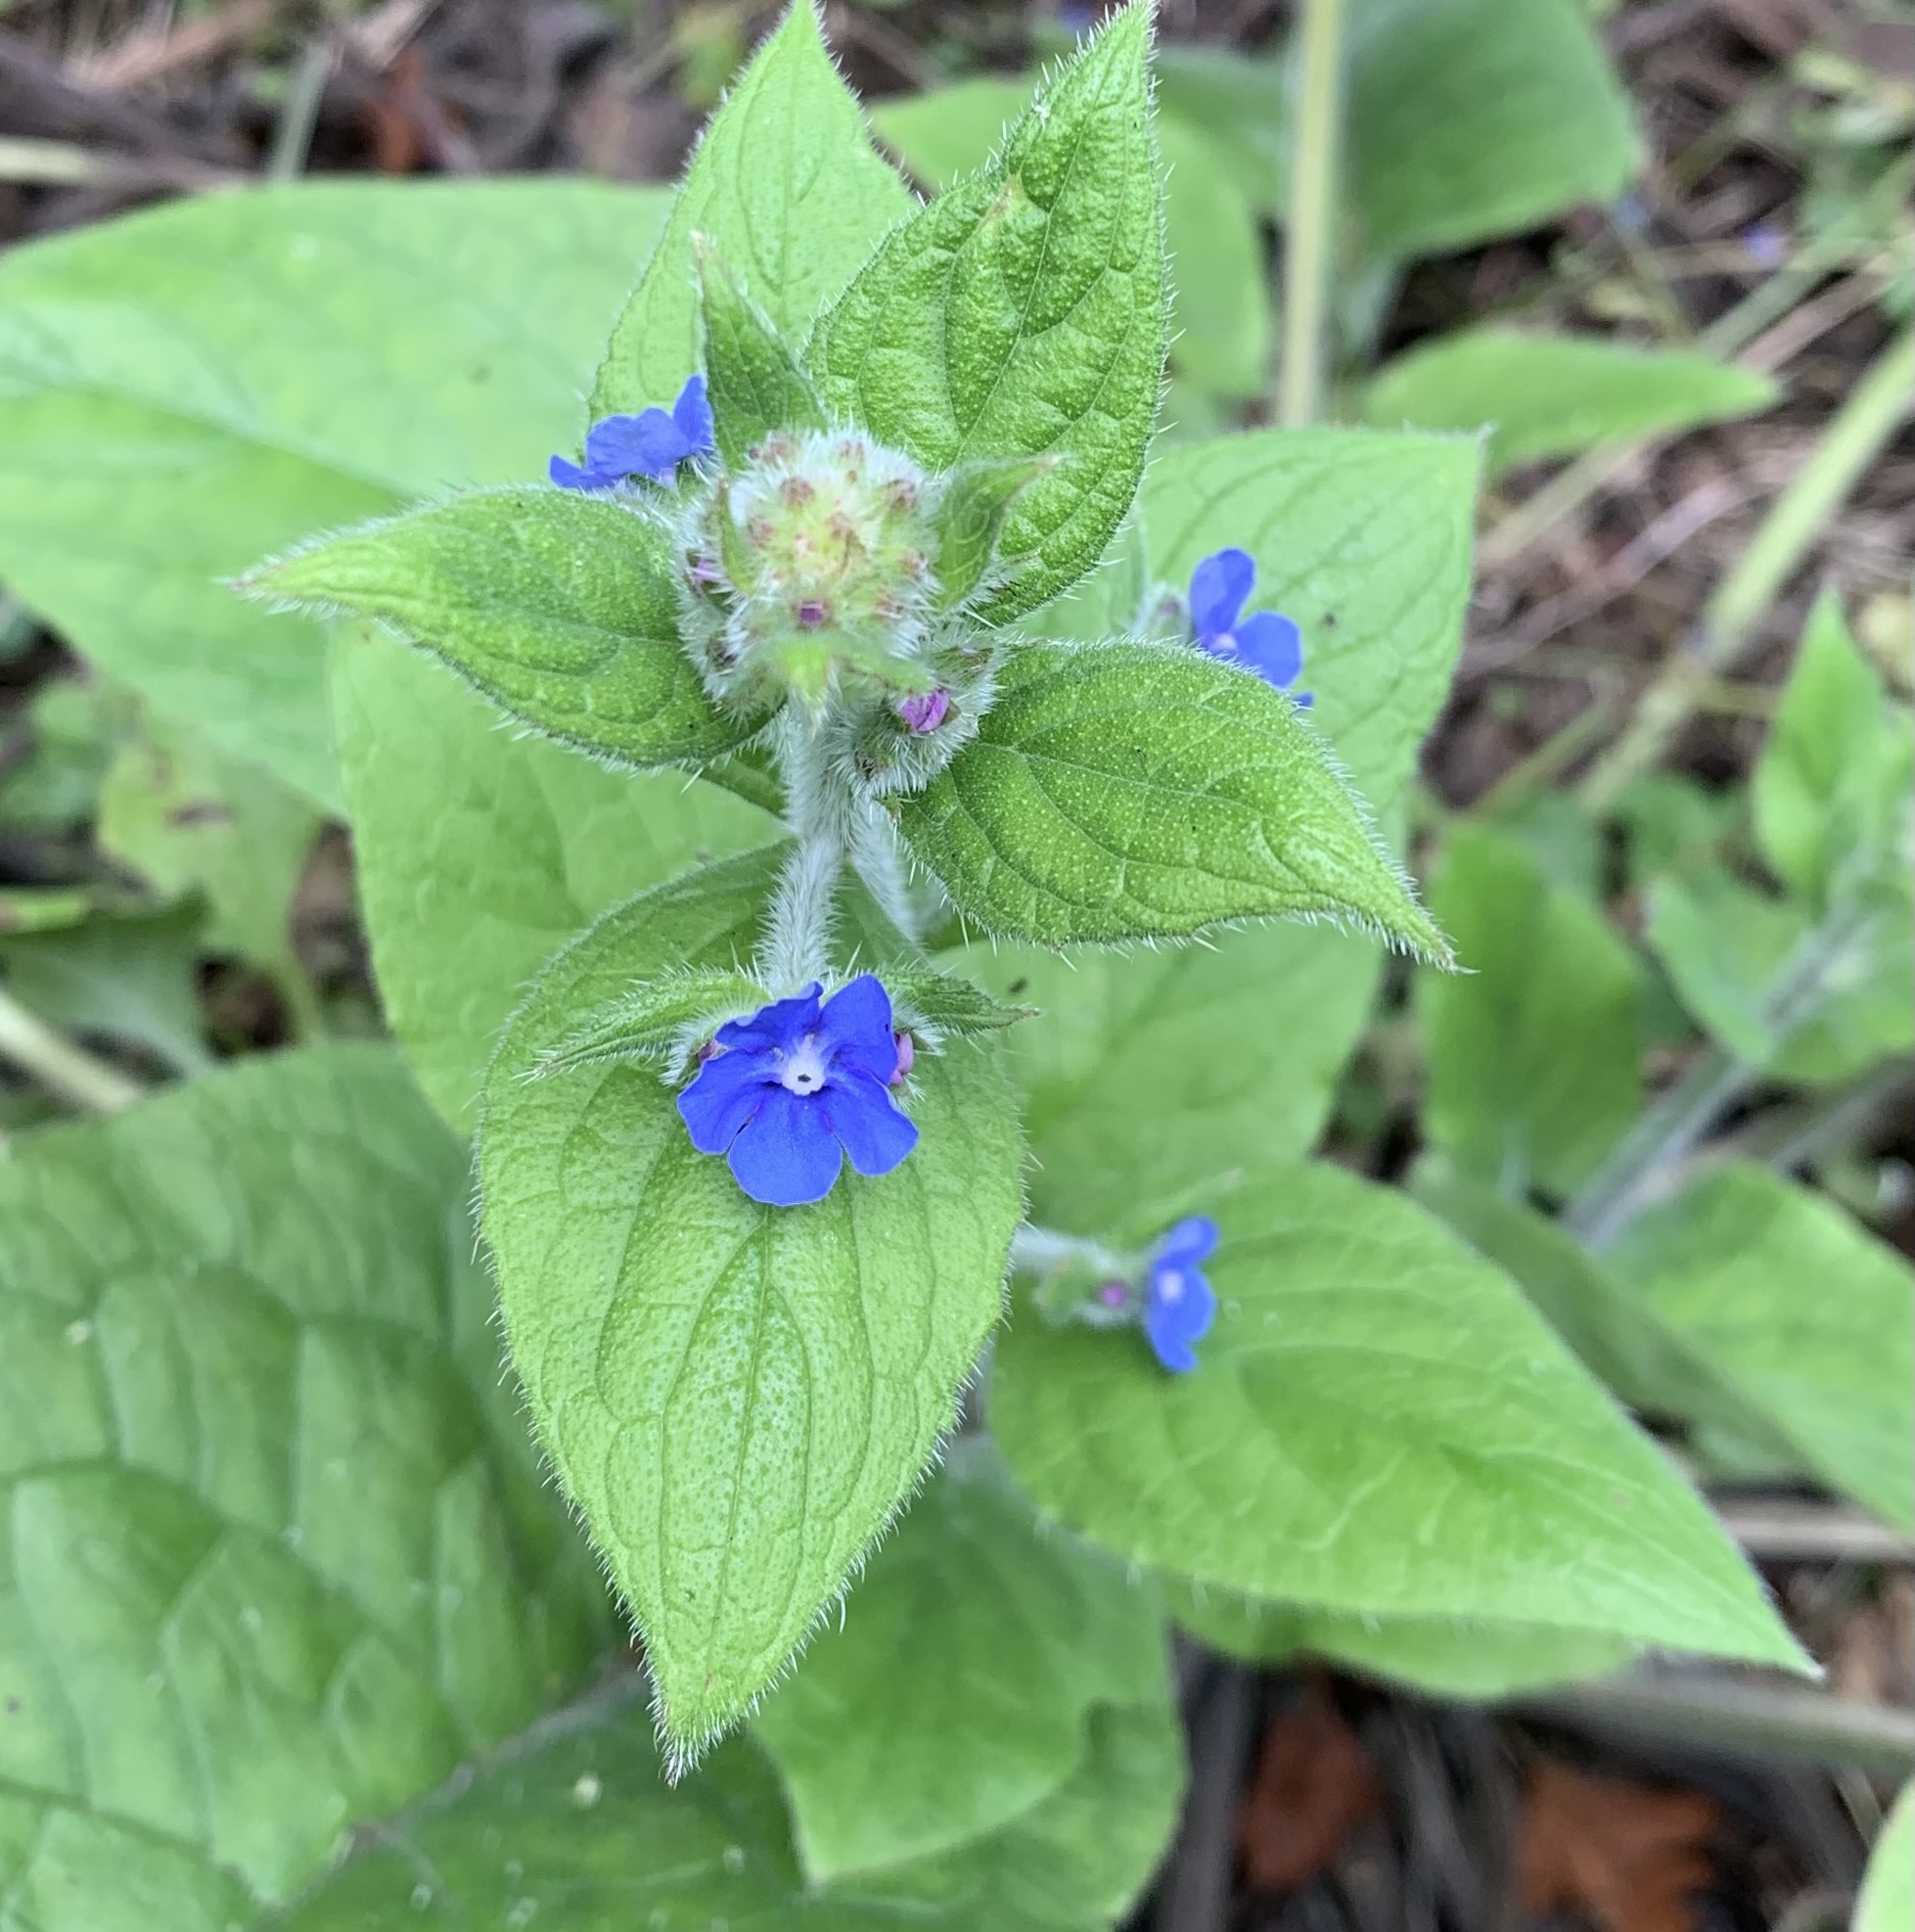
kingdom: Plantae
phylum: Tracheophyta
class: Magnoliopsida
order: Boraginales
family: Boraginaceae
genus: Pentaglottis
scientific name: Pentaglottis sempervirens
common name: Green alkanet
